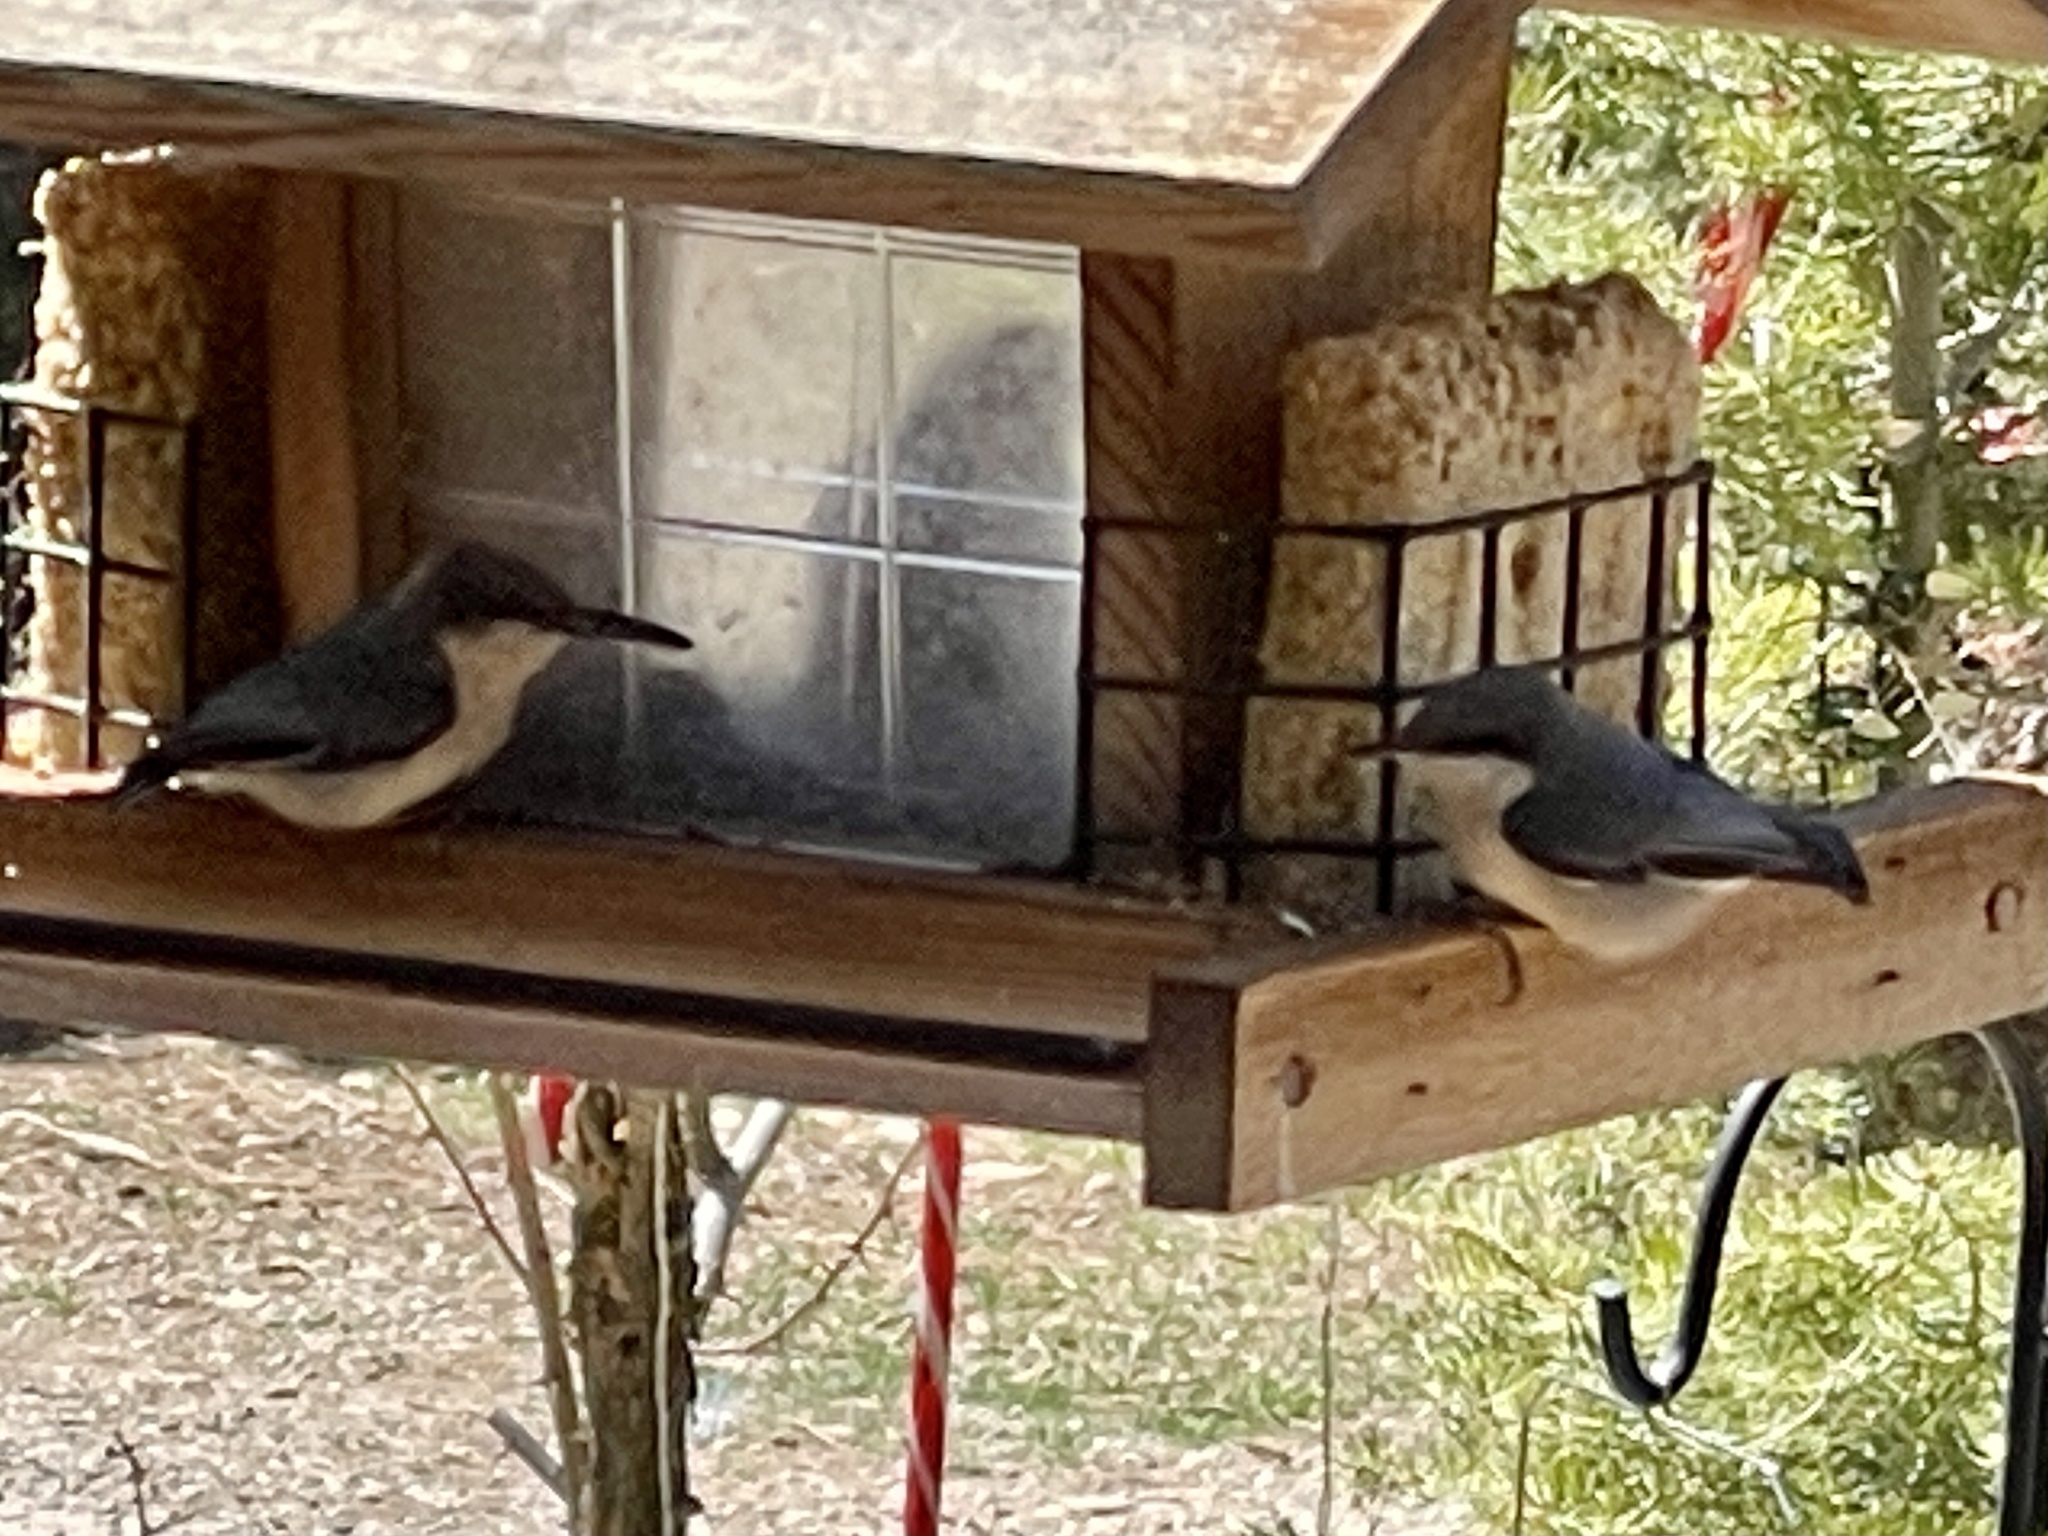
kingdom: Animalia
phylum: Chordata
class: Aves
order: Passeriformes
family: Sittidae
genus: Sitta
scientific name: Sitta pygmaea
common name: Pygmy nuthatch
